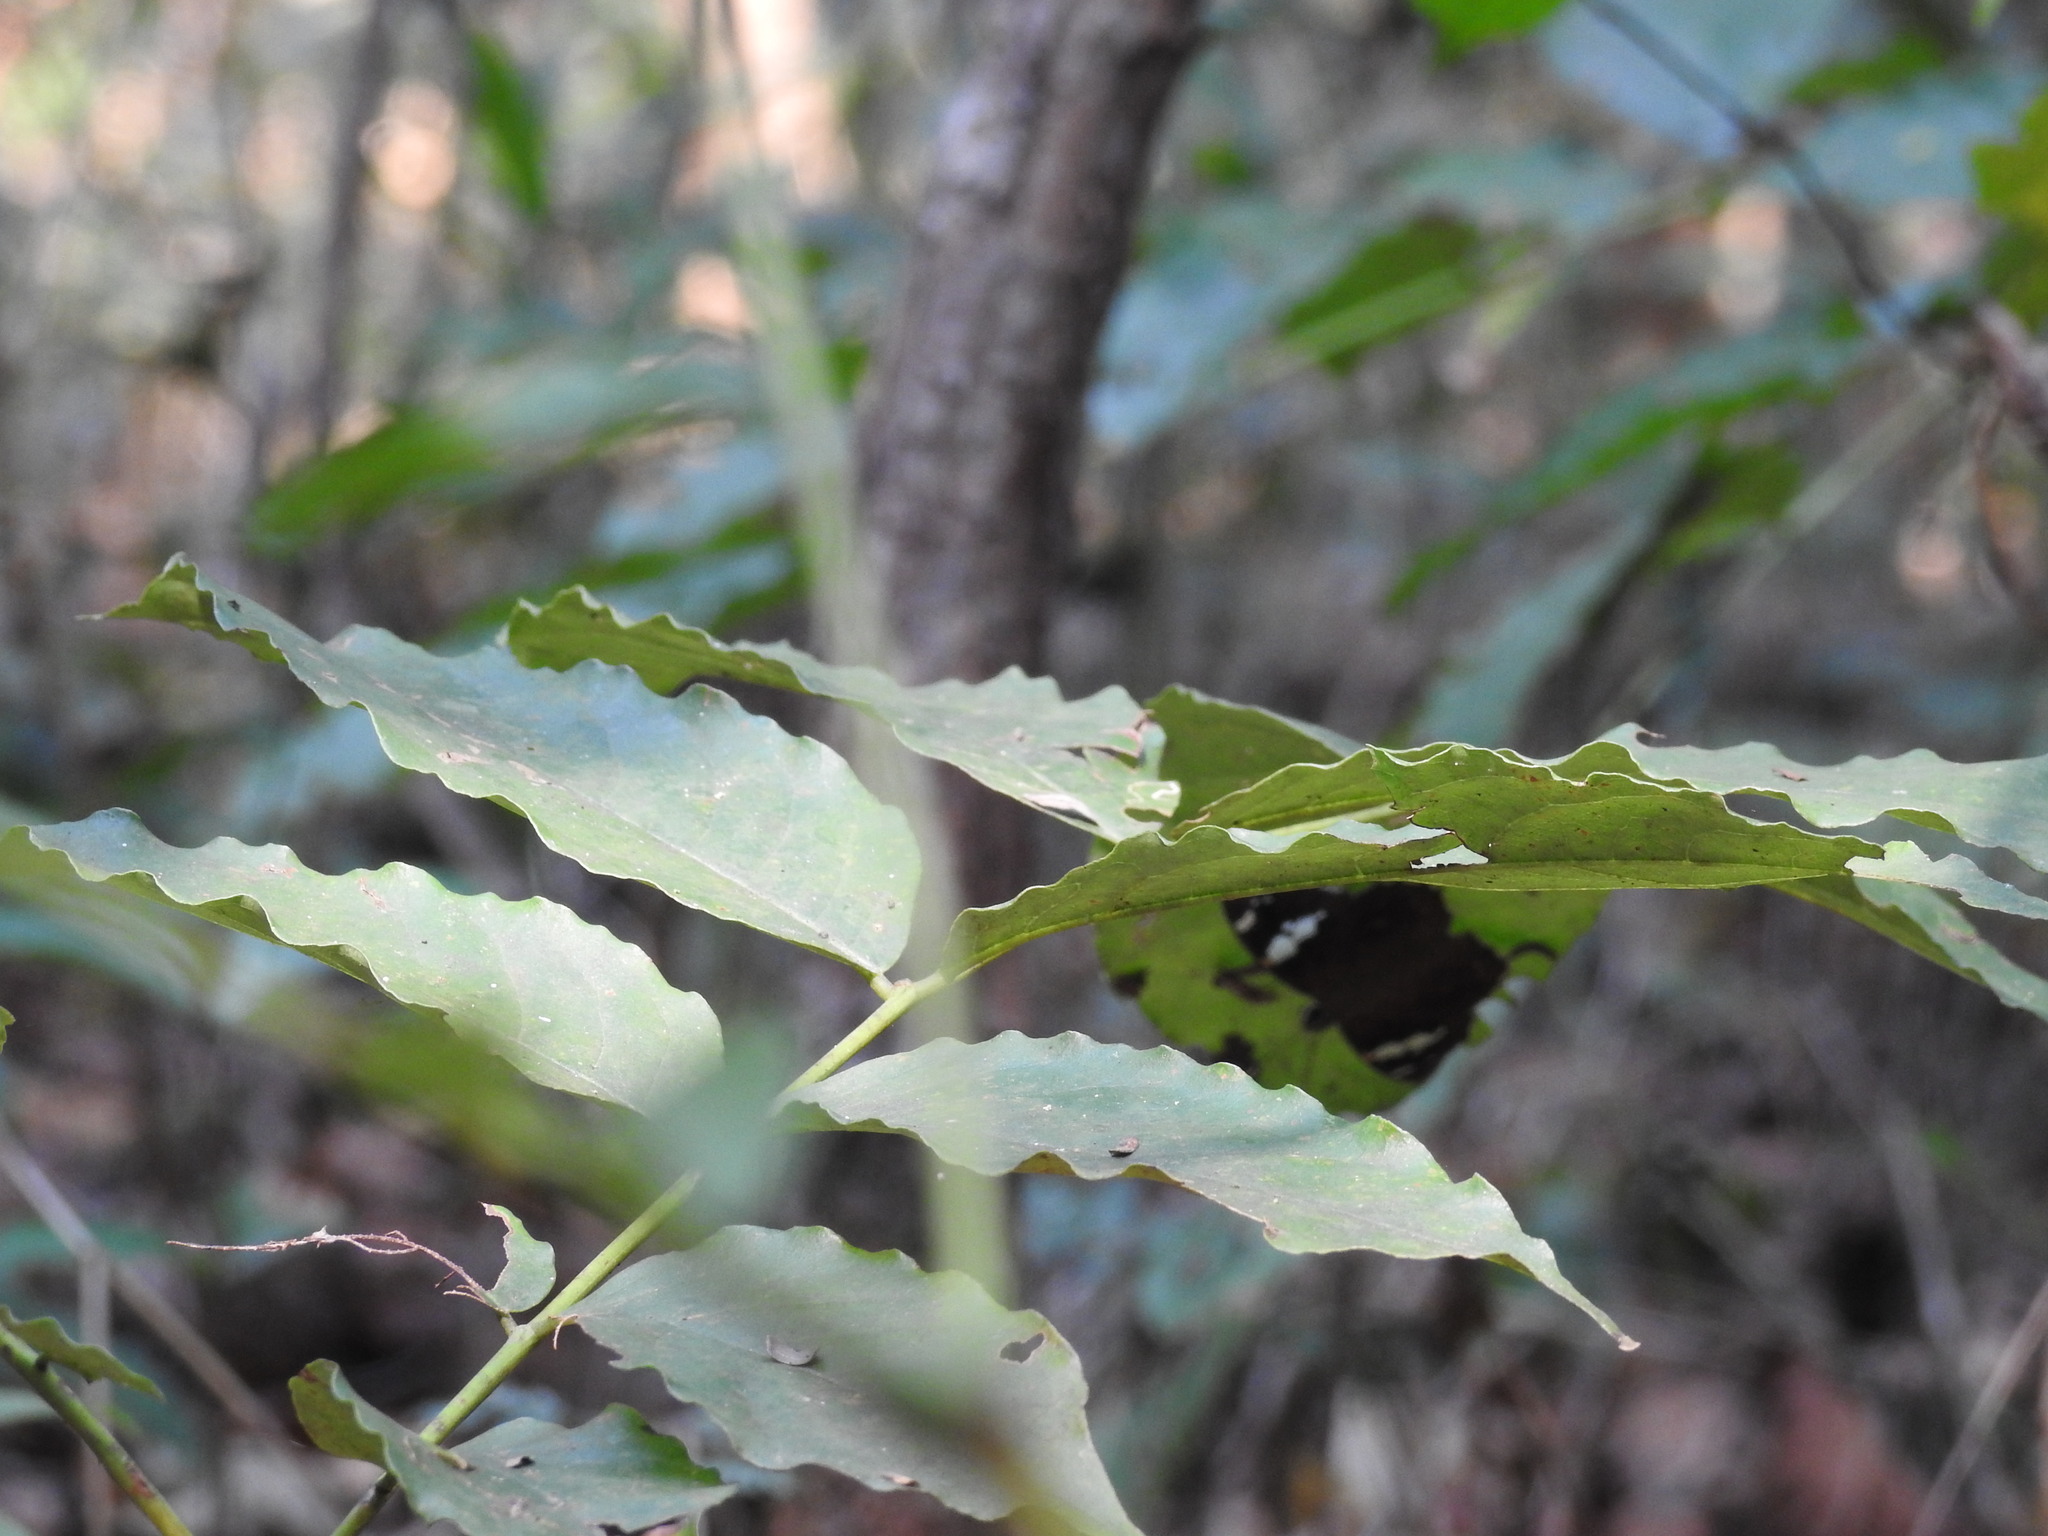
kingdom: Animalia
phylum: Arthropoda
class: Insecta
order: Lepidoptera
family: Hesperiidae
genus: Celaenorrhinus
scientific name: Celaenorrhinus leucocera
